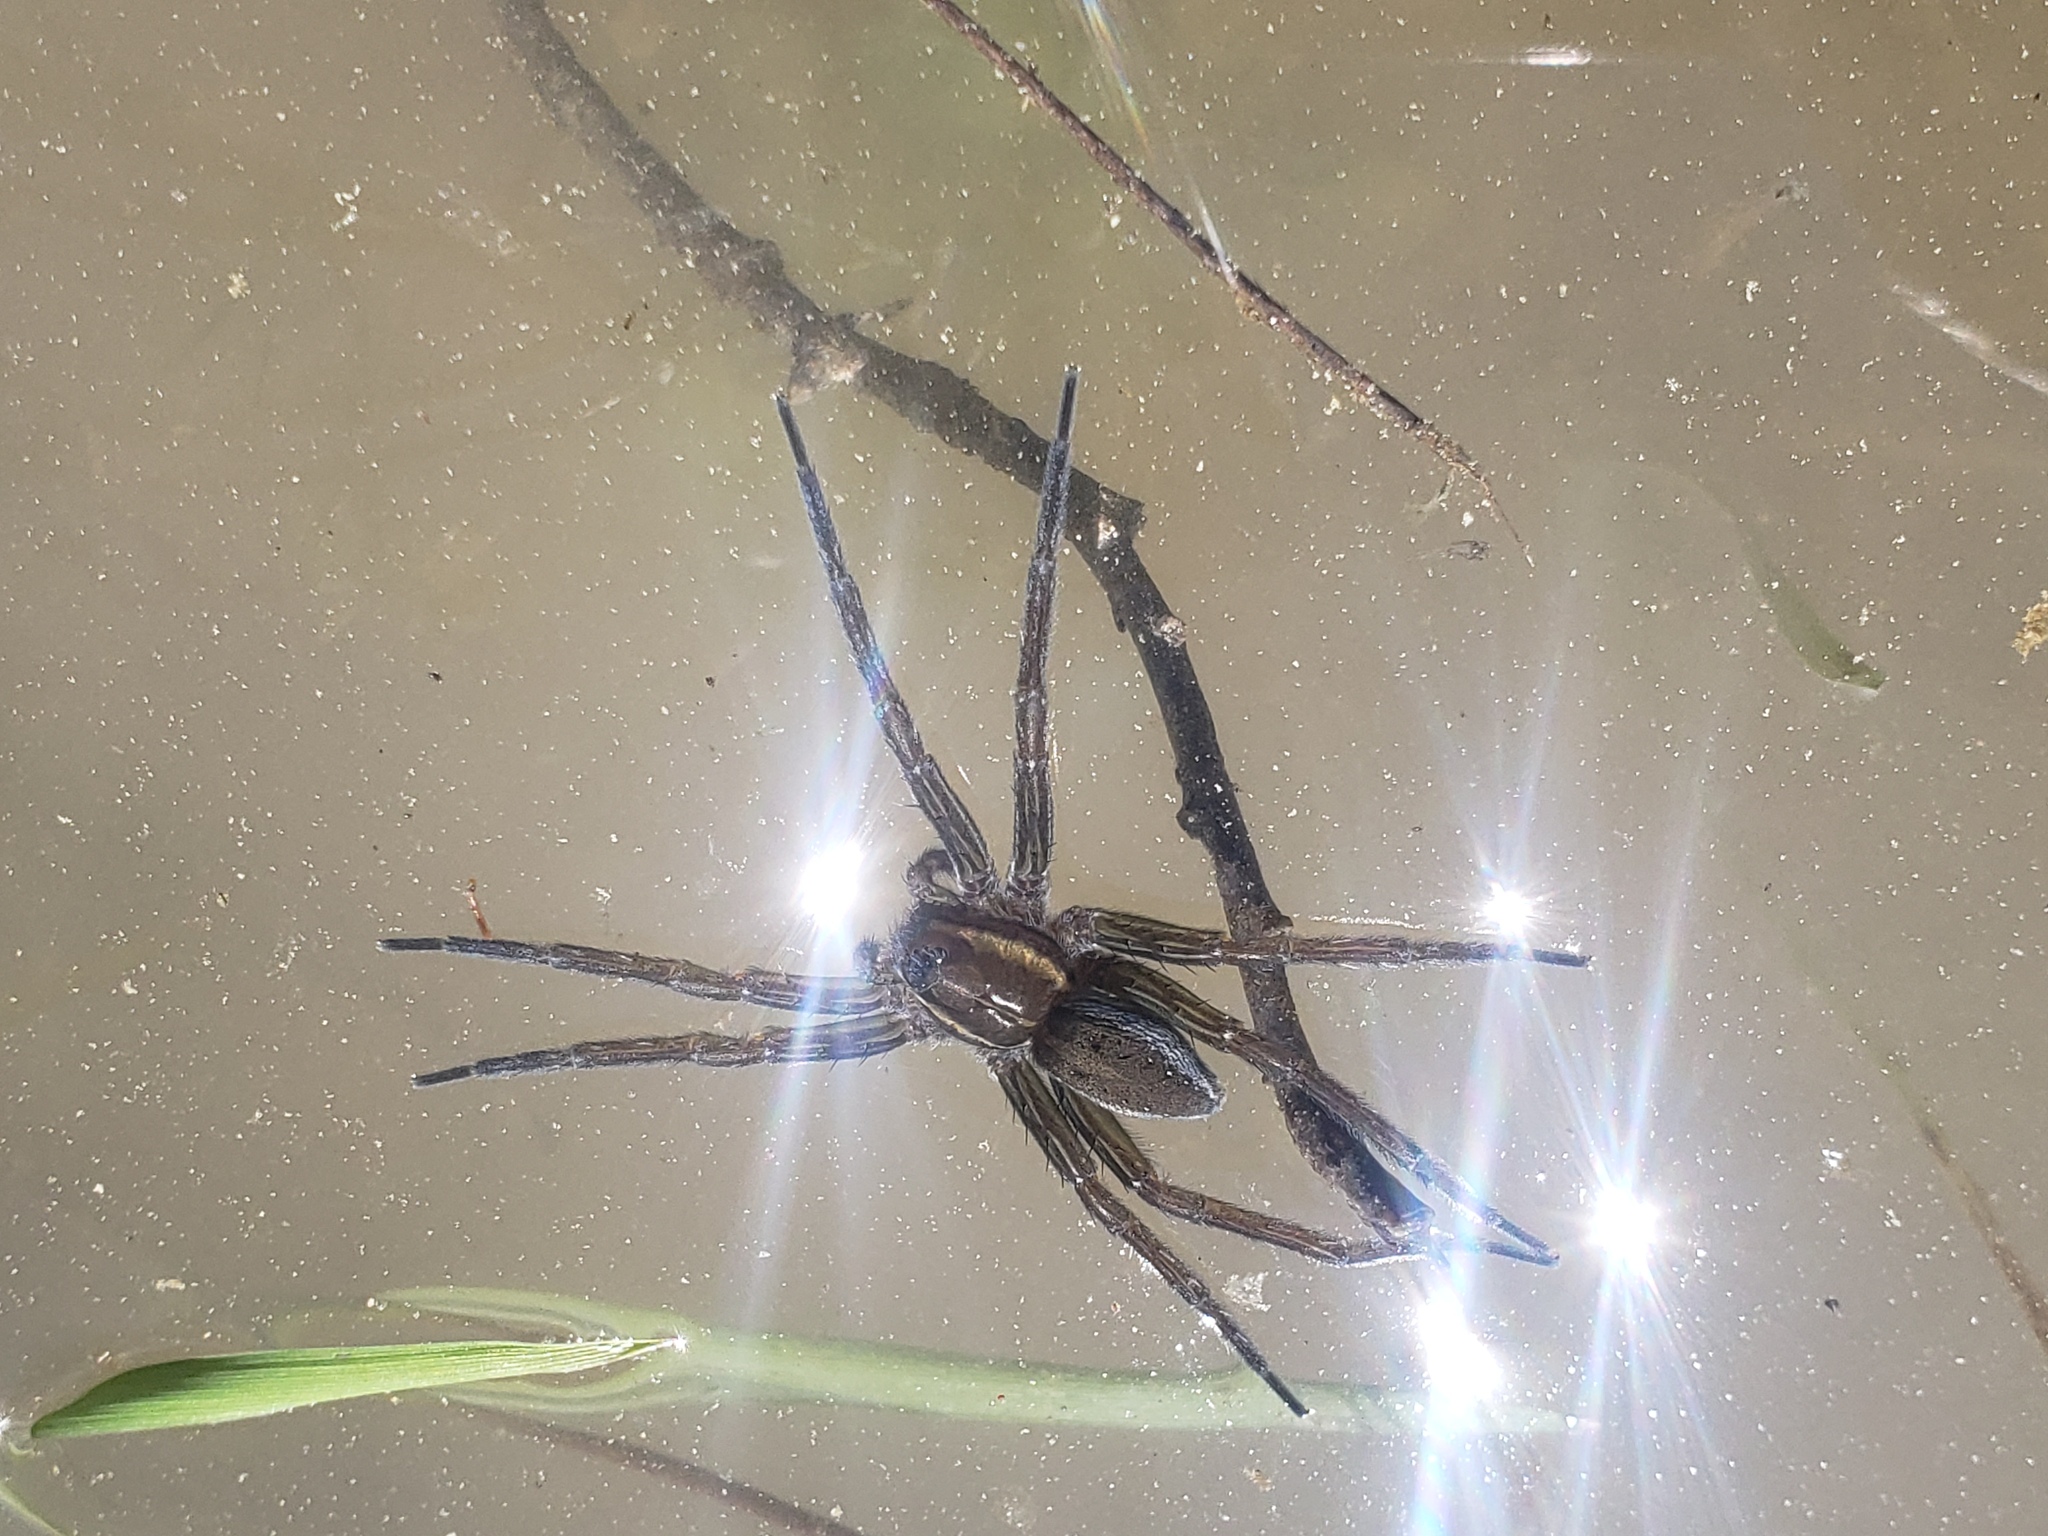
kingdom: Animalia
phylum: Arthropoda
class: Arachnida
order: Araneae
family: Pisauridae
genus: Dolomedes
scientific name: Dolomedes triton
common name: Six-spotted fishing spider
